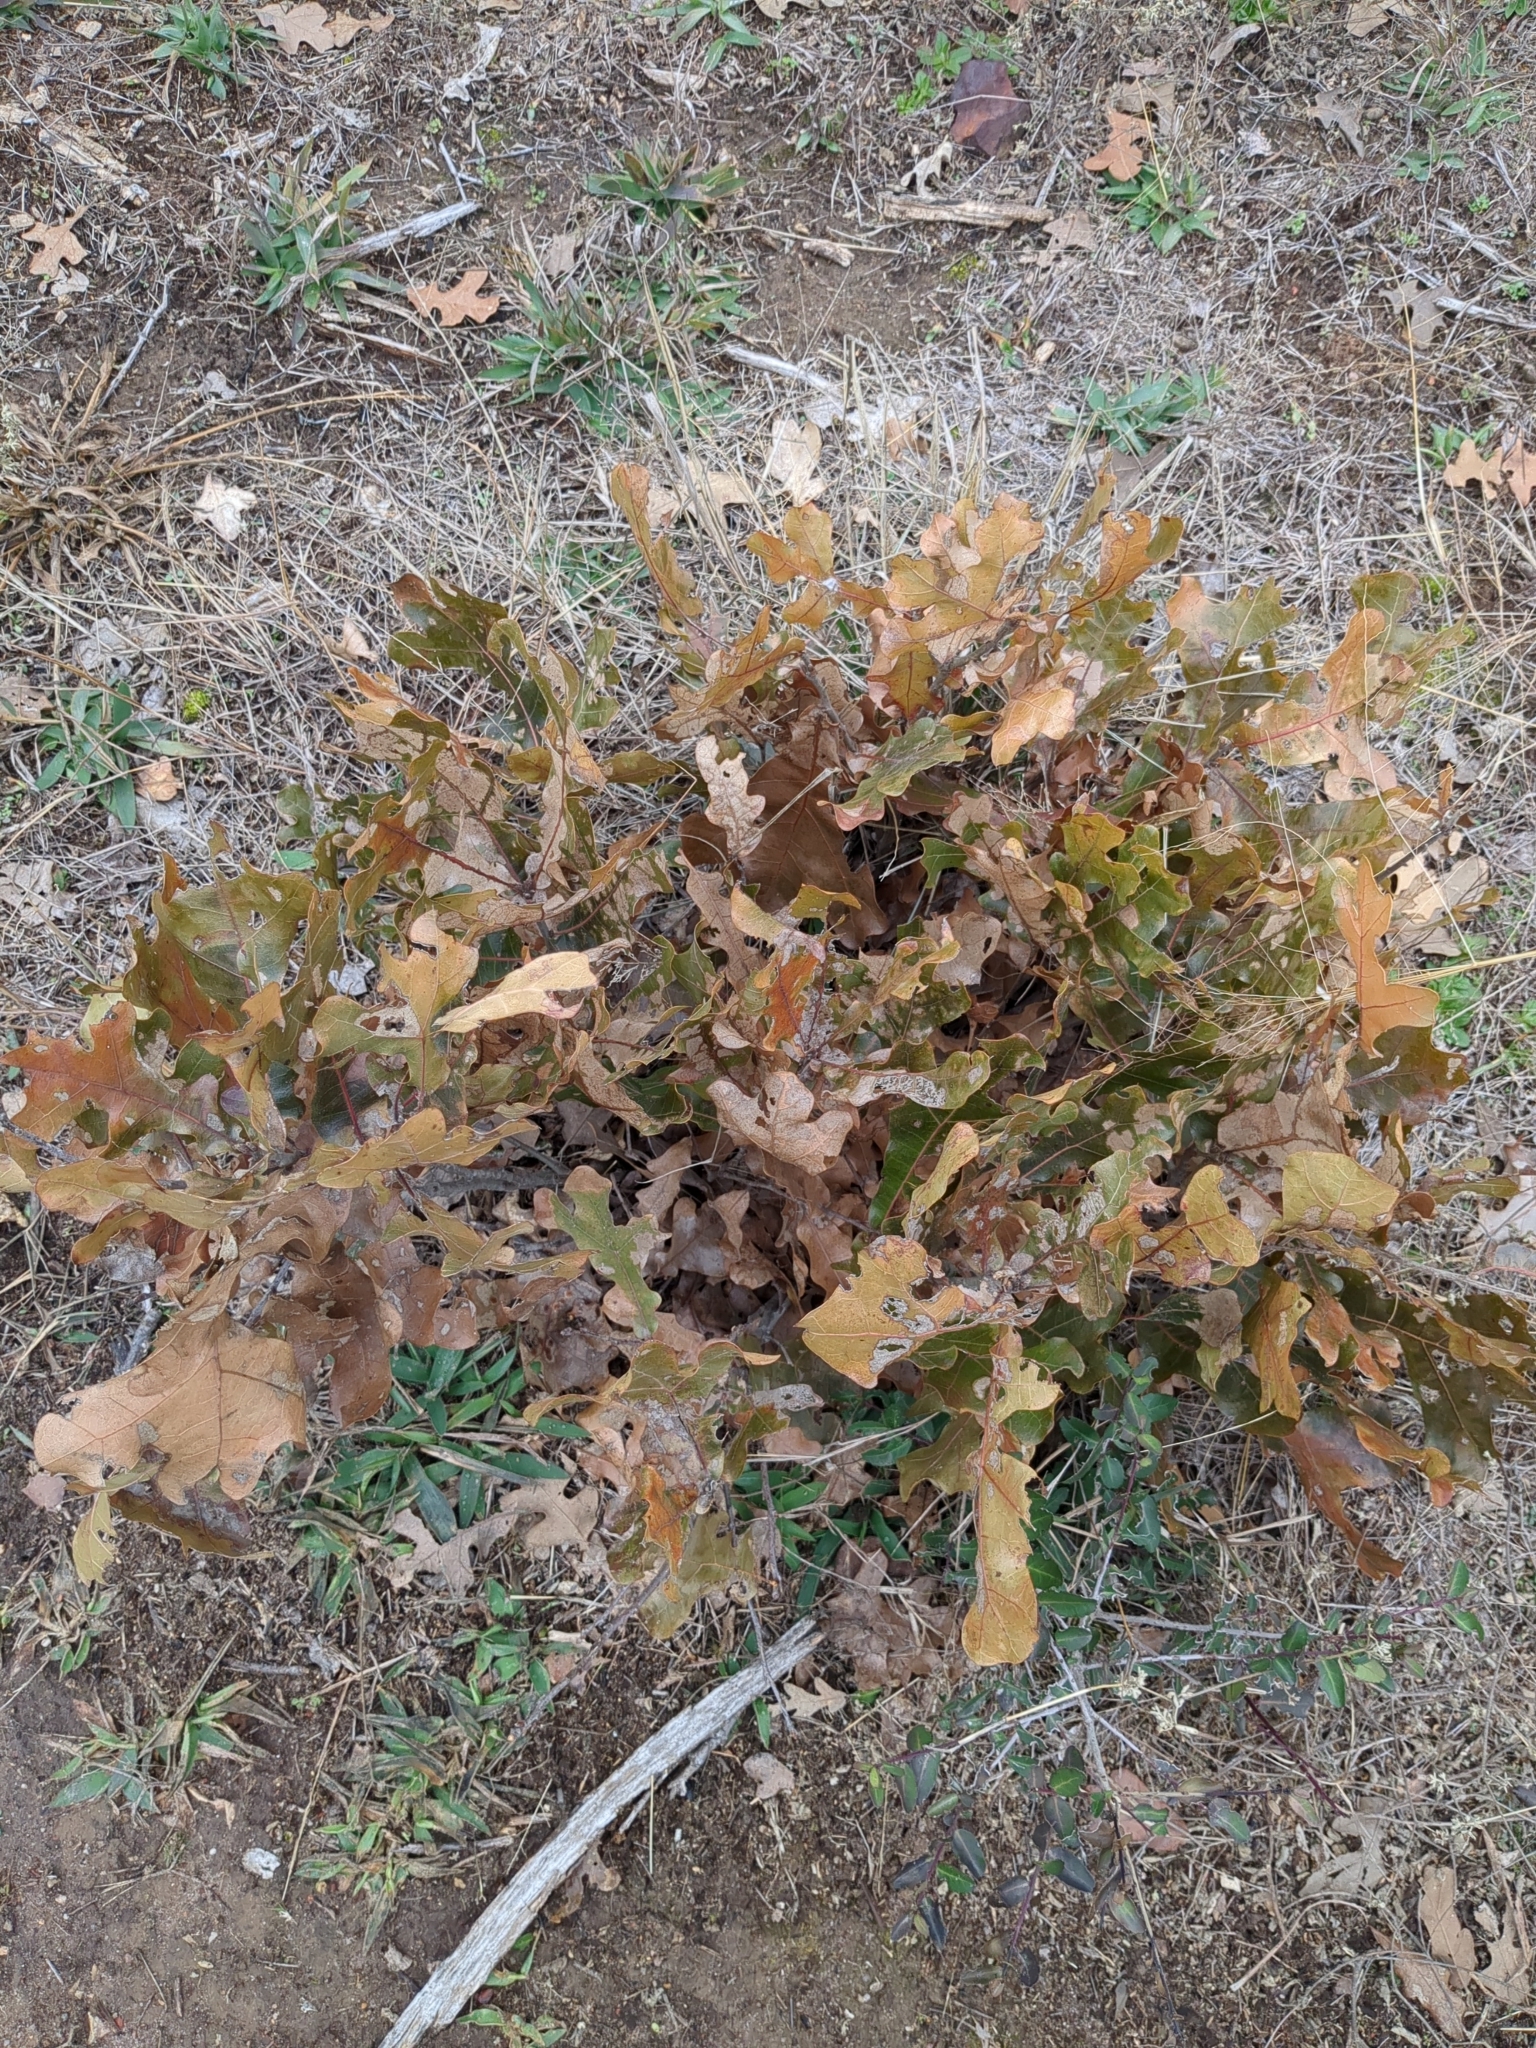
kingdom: Plantae
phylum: Tracheophyta
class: Magnoliopsida
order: Fagales
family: Fagaceae
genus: Quercus
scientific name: Quercus stellata
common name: Post oak
